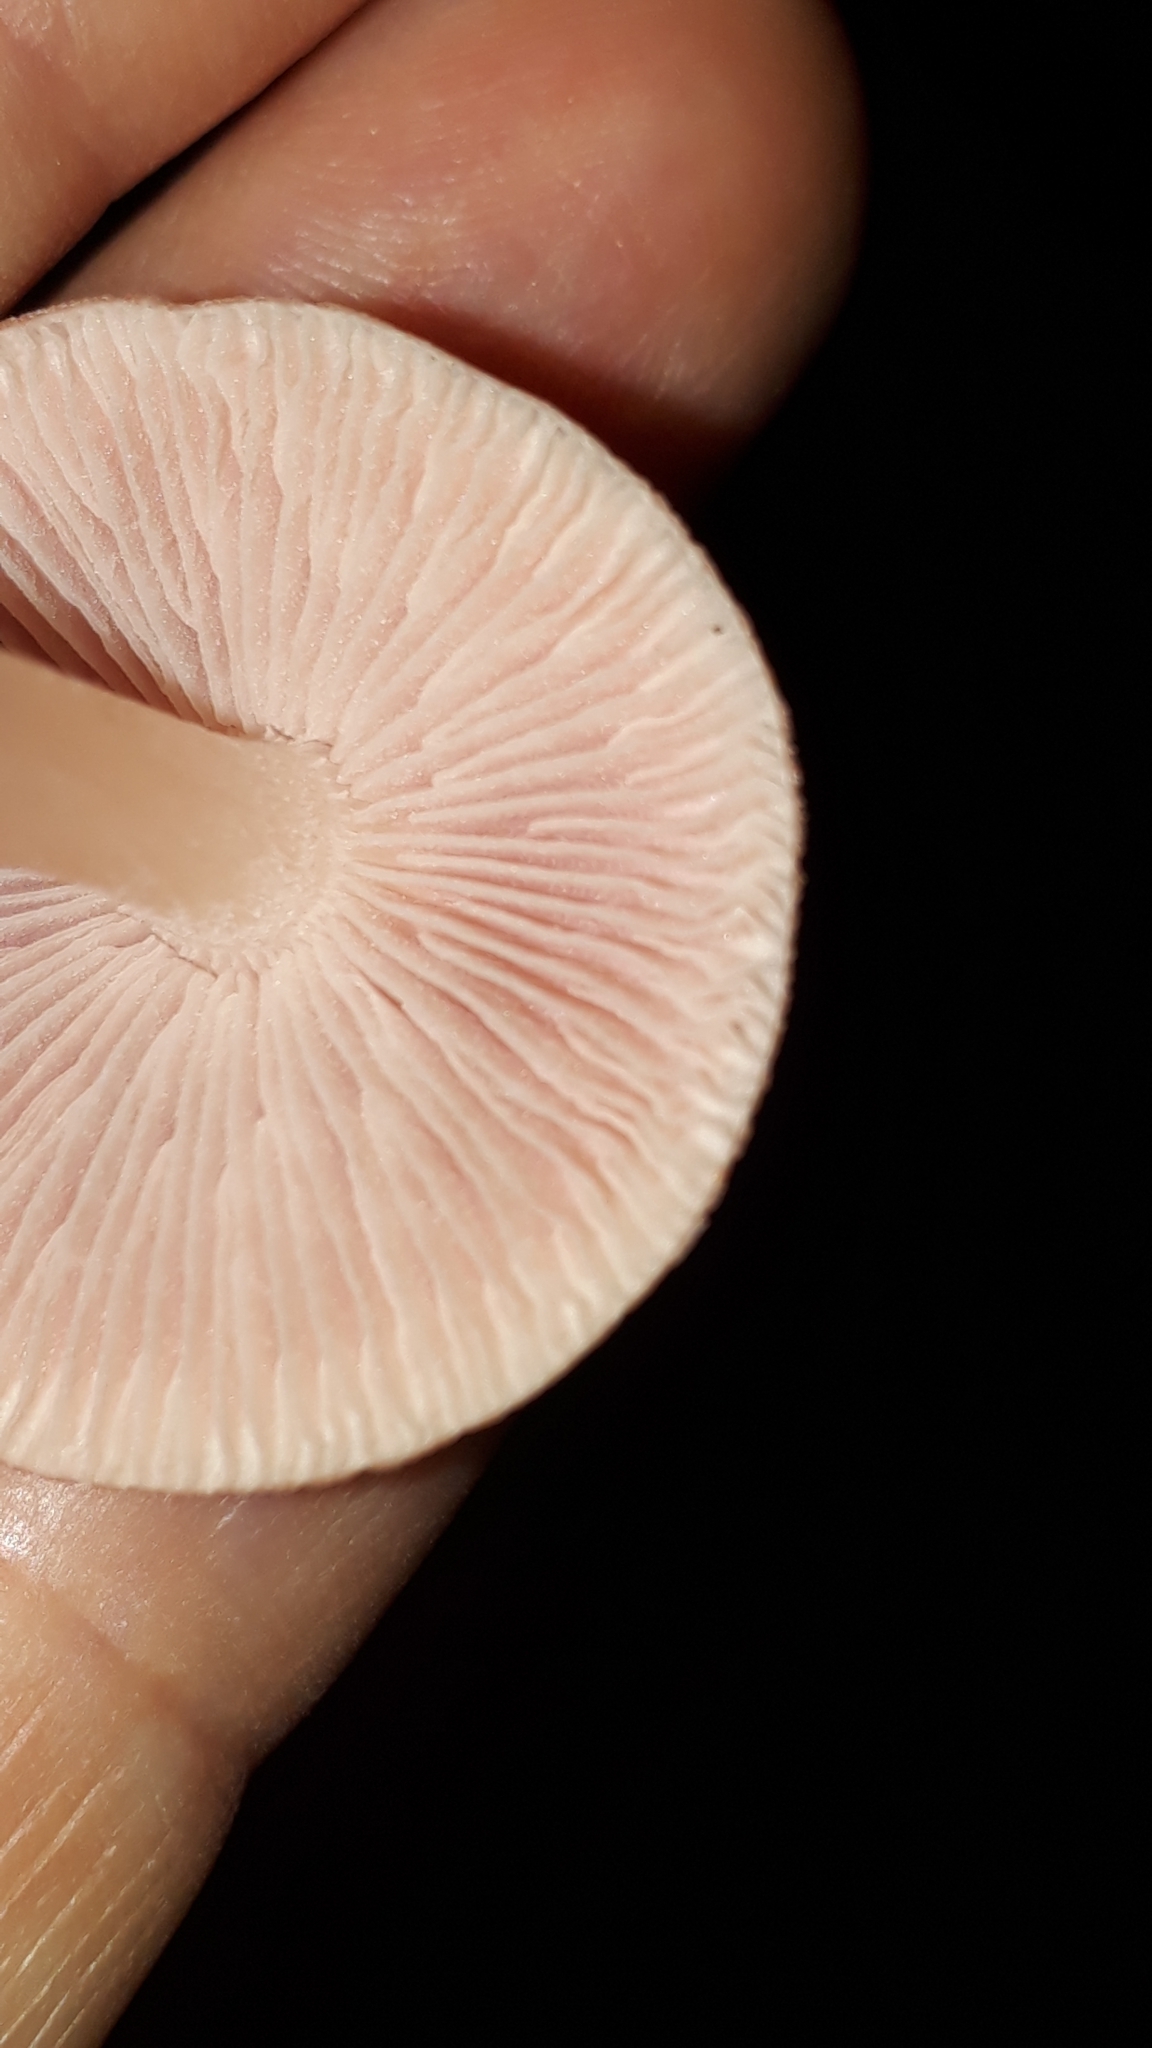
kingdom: Fungi
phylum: Basidiomycota
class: Agaricomycetes
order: Agaricales
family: Mycenaceae
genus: Mycena
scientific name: Mycena rosea
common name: Rosy bonnet
